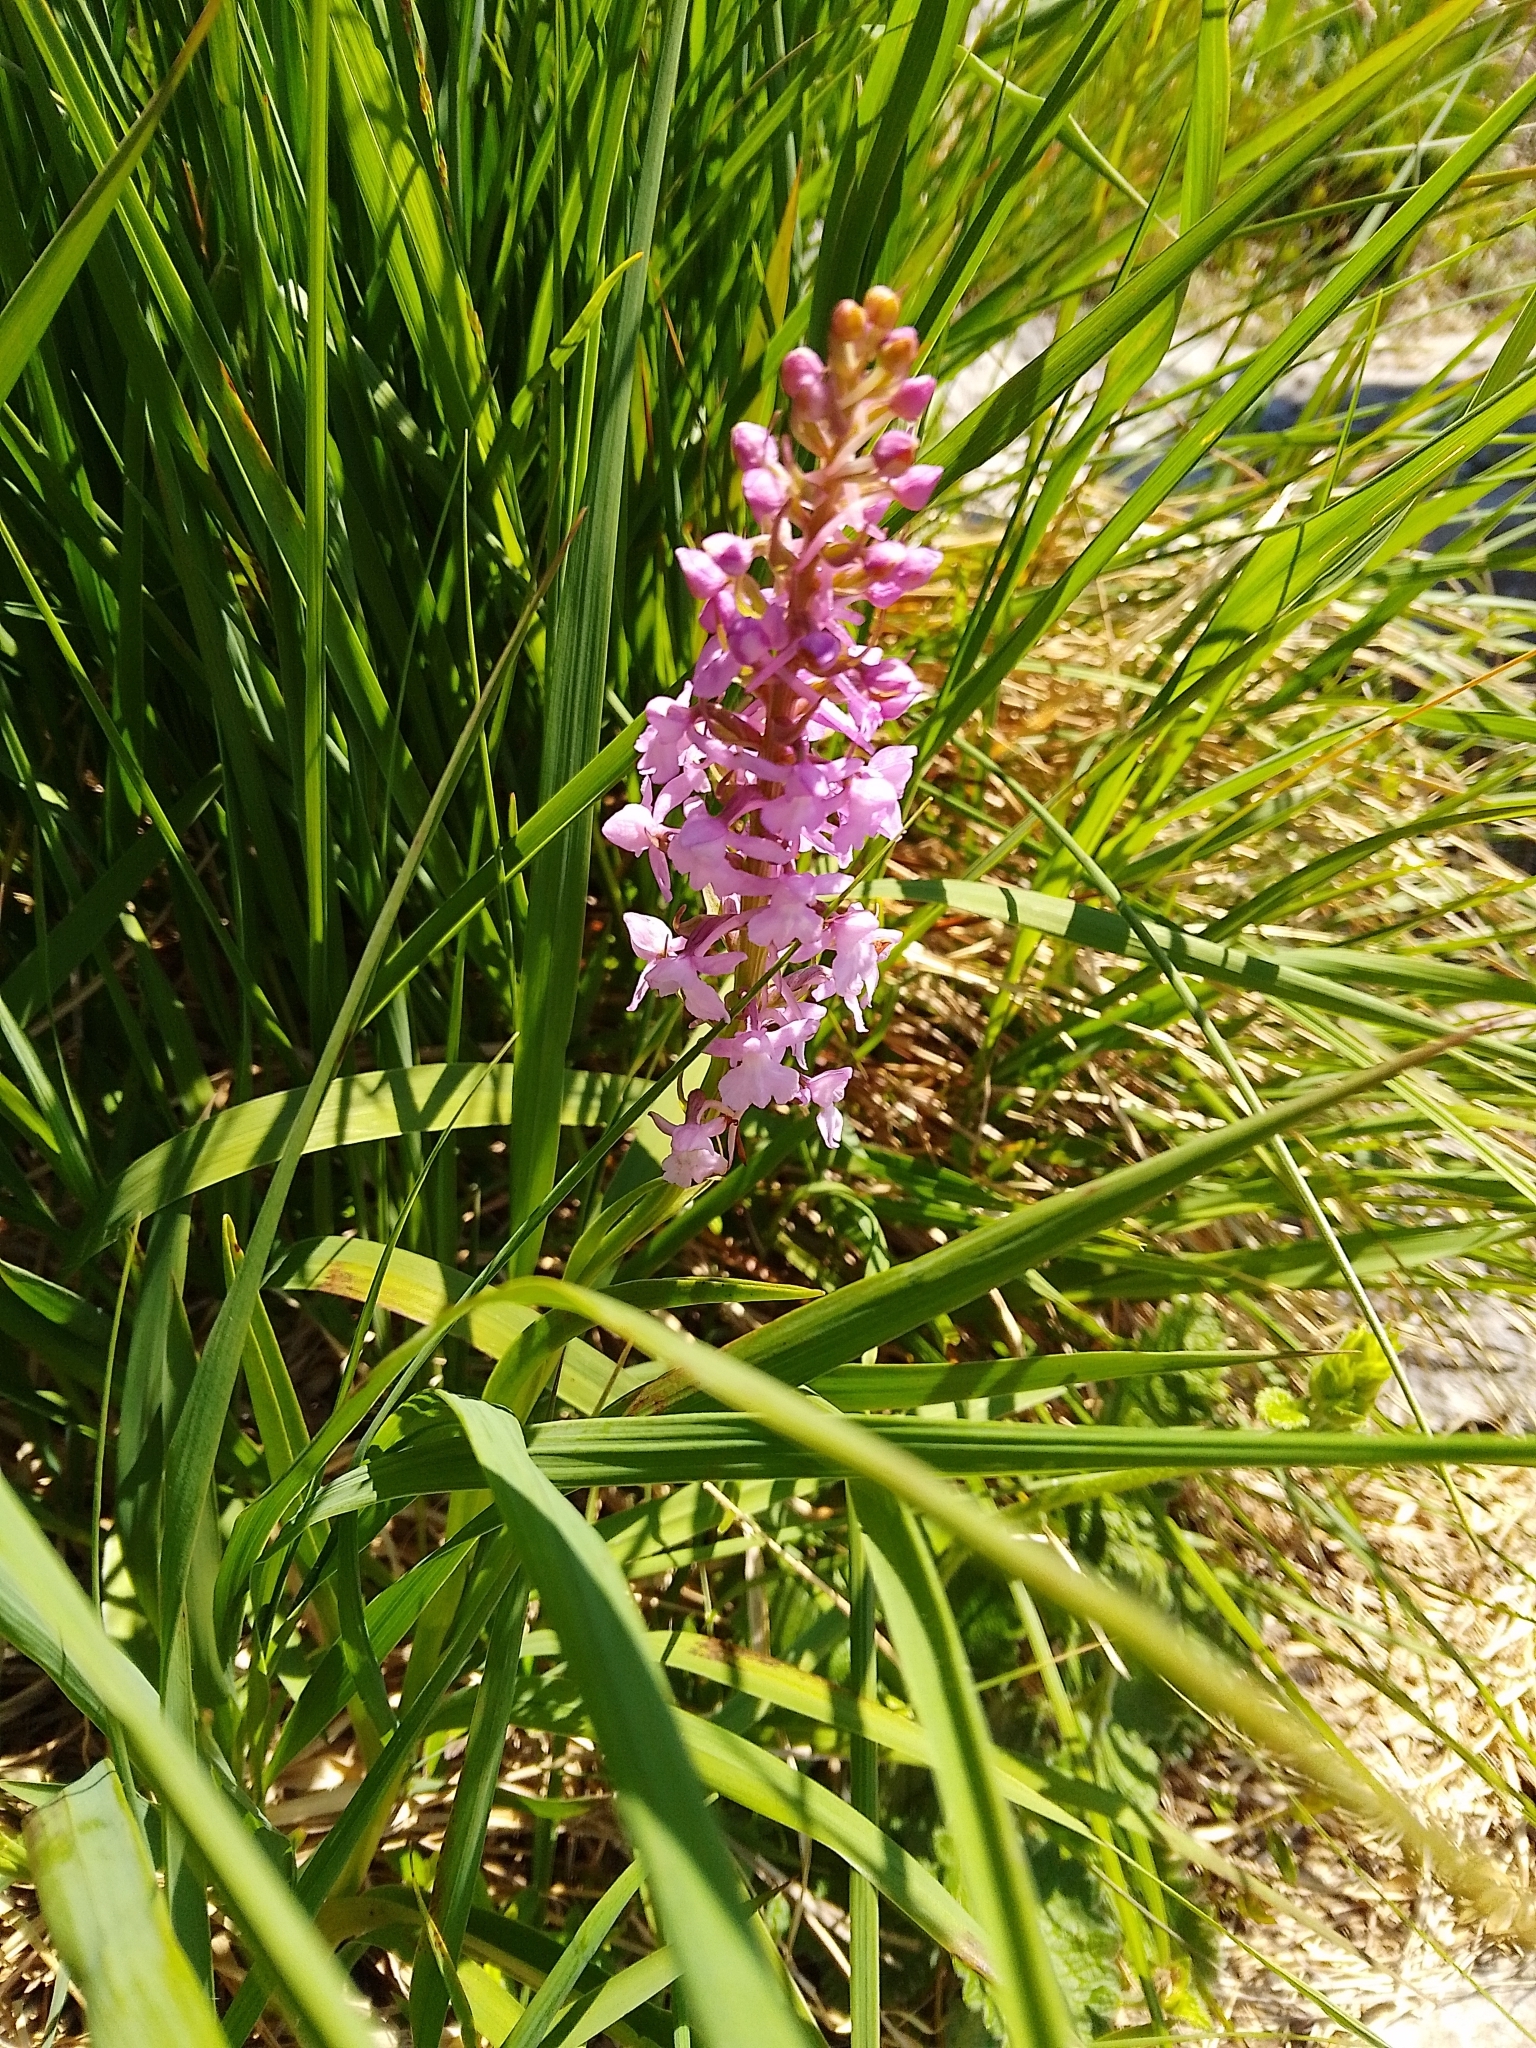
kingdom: Plantae
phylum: Tracheophyta
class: Liliopsida
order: Asparagales
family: Orchidaceae
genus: Gymnadenia
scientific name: Gymnadenia conopsea
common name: Fragrant orchid
